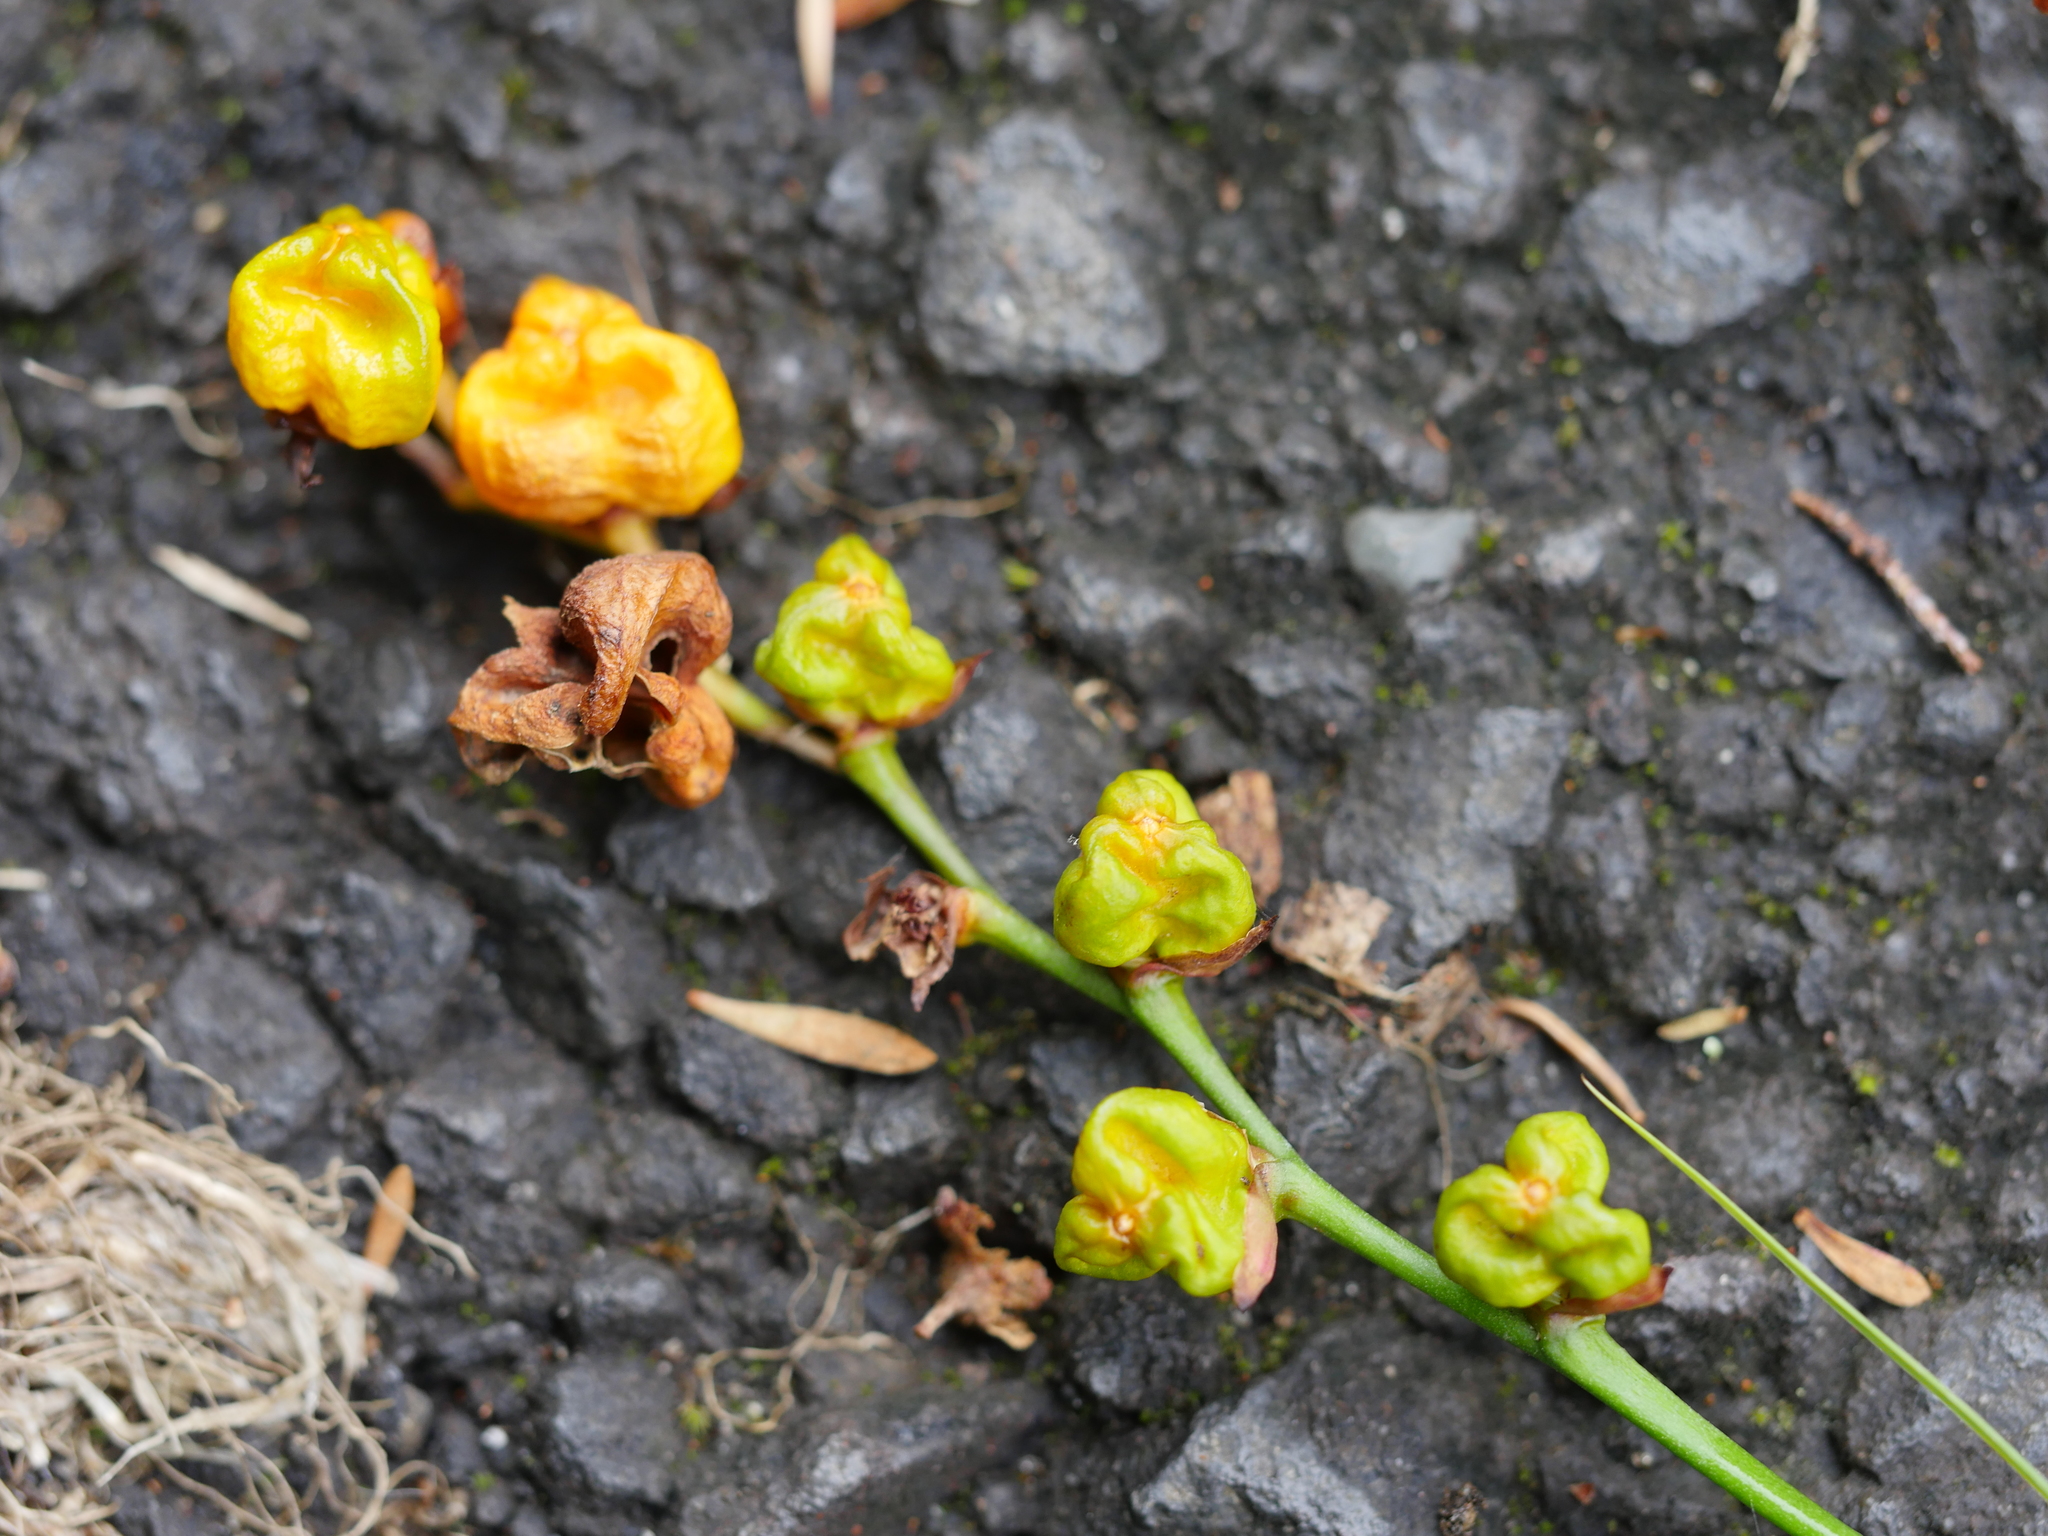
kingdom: Plantae
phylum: Tracheophyta
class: Liliopsida
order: Asparagales
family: Iridaceae
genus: Crocosmia
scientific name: Crocosmia crocosmiiflora
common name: Montbretia
